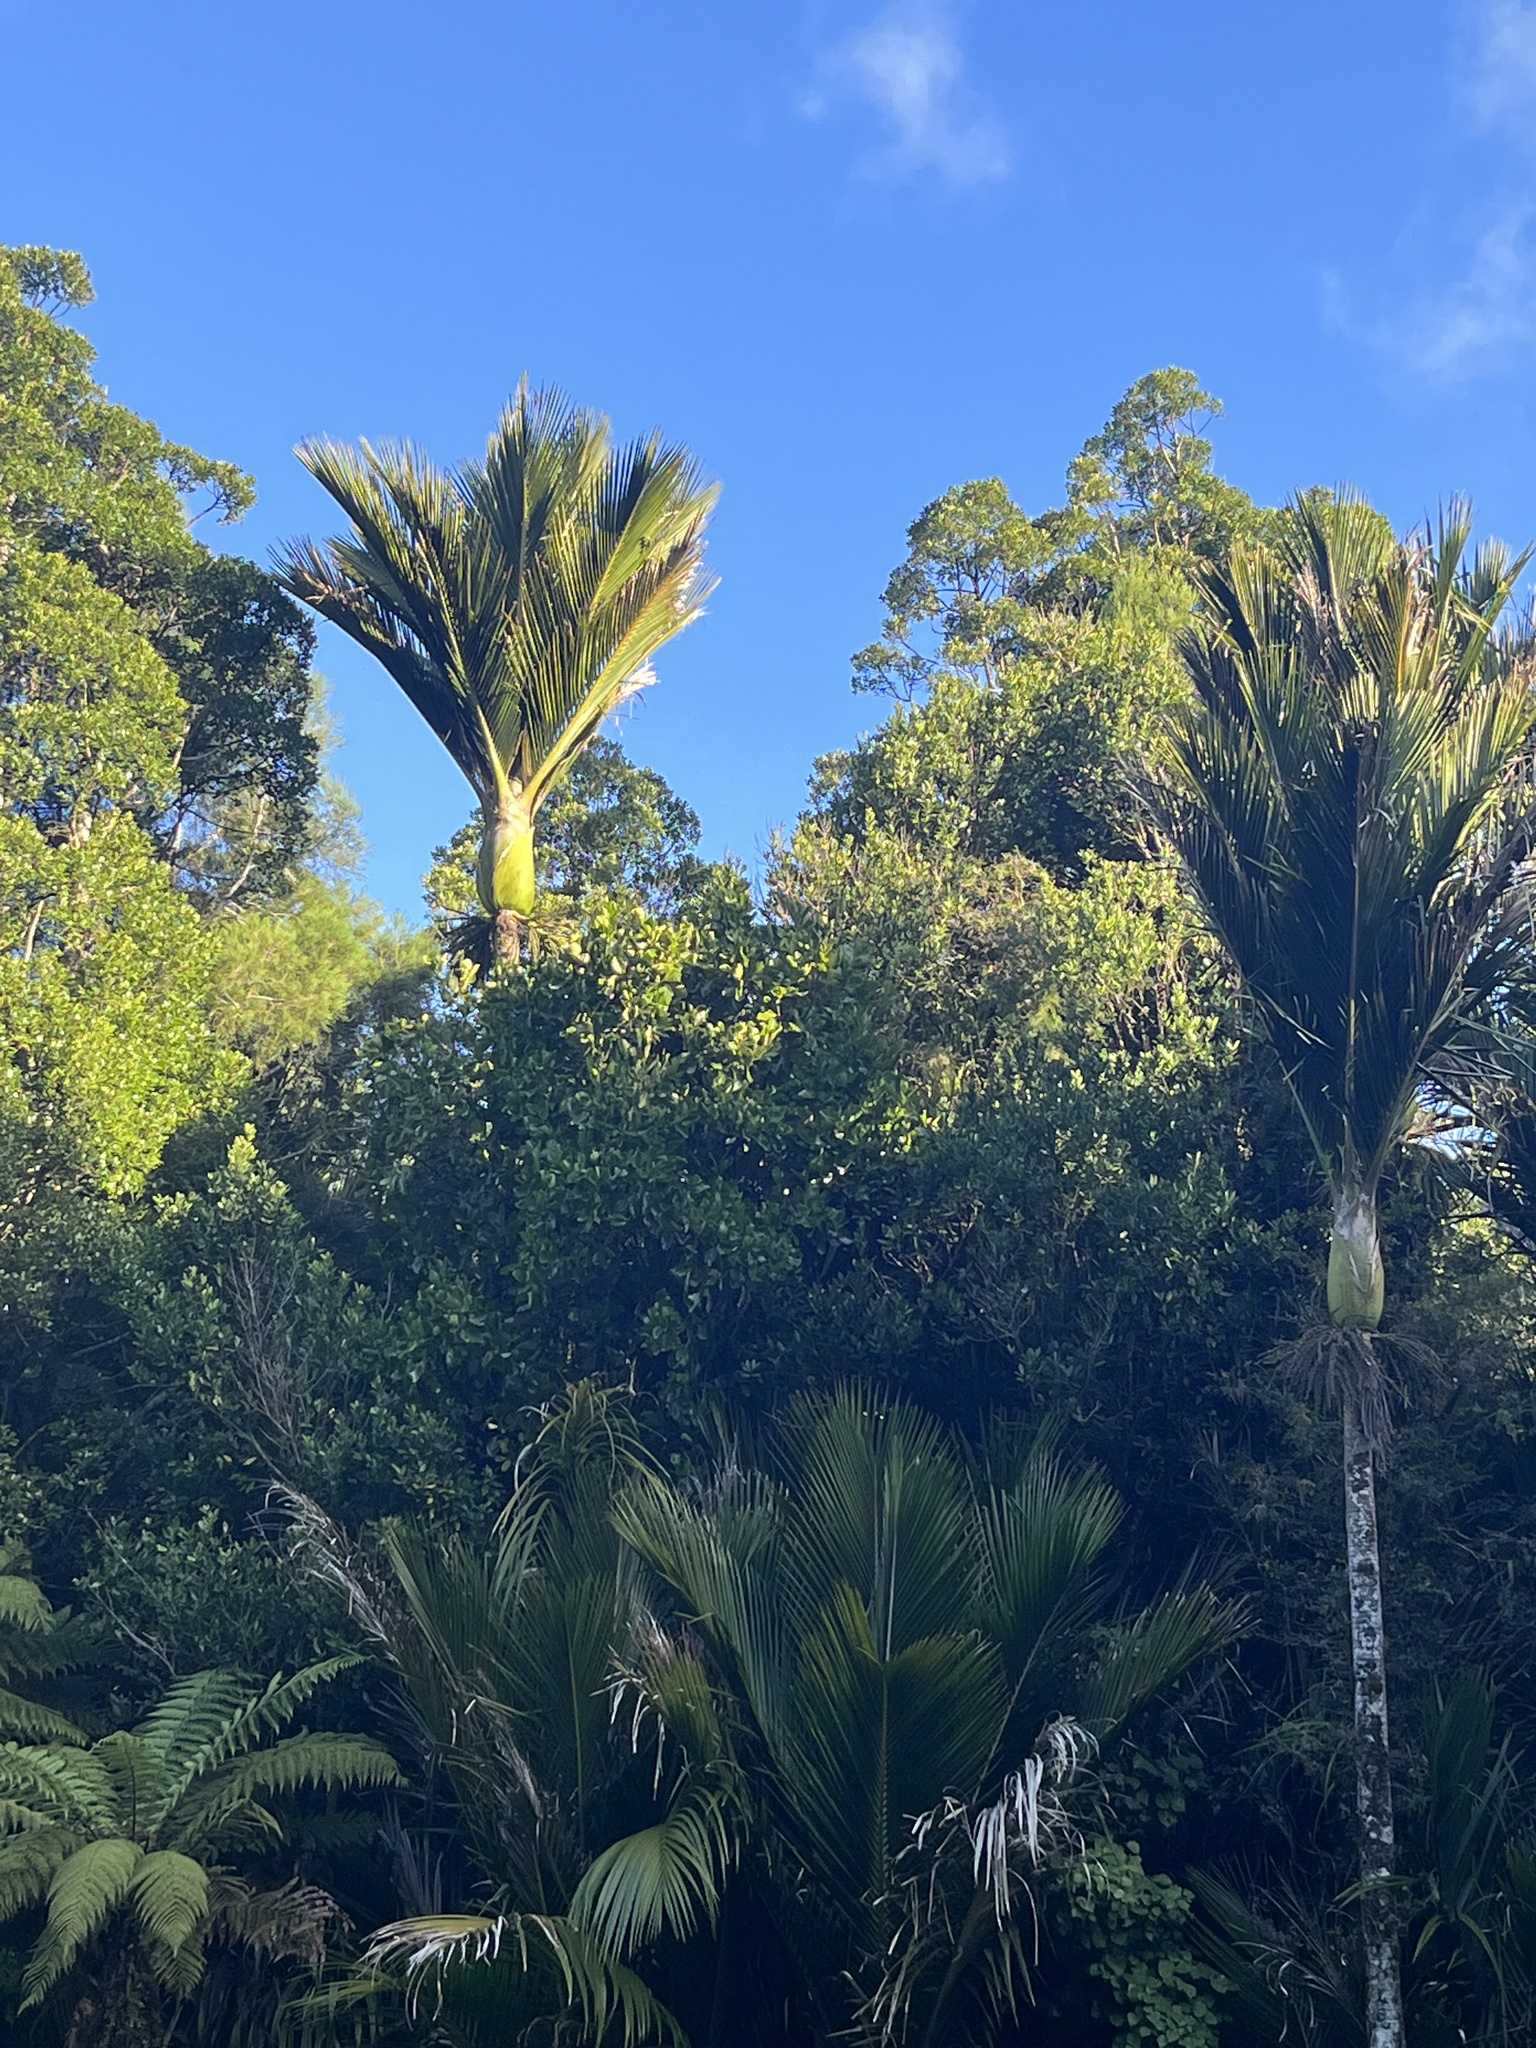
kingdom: Plantae
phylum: Tracheophyta
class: Liliopsida
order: Arecales
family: Arecaceae
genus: Rhopalostylis
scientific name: Rhopalostylis sapida
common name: Feather-duster palm
